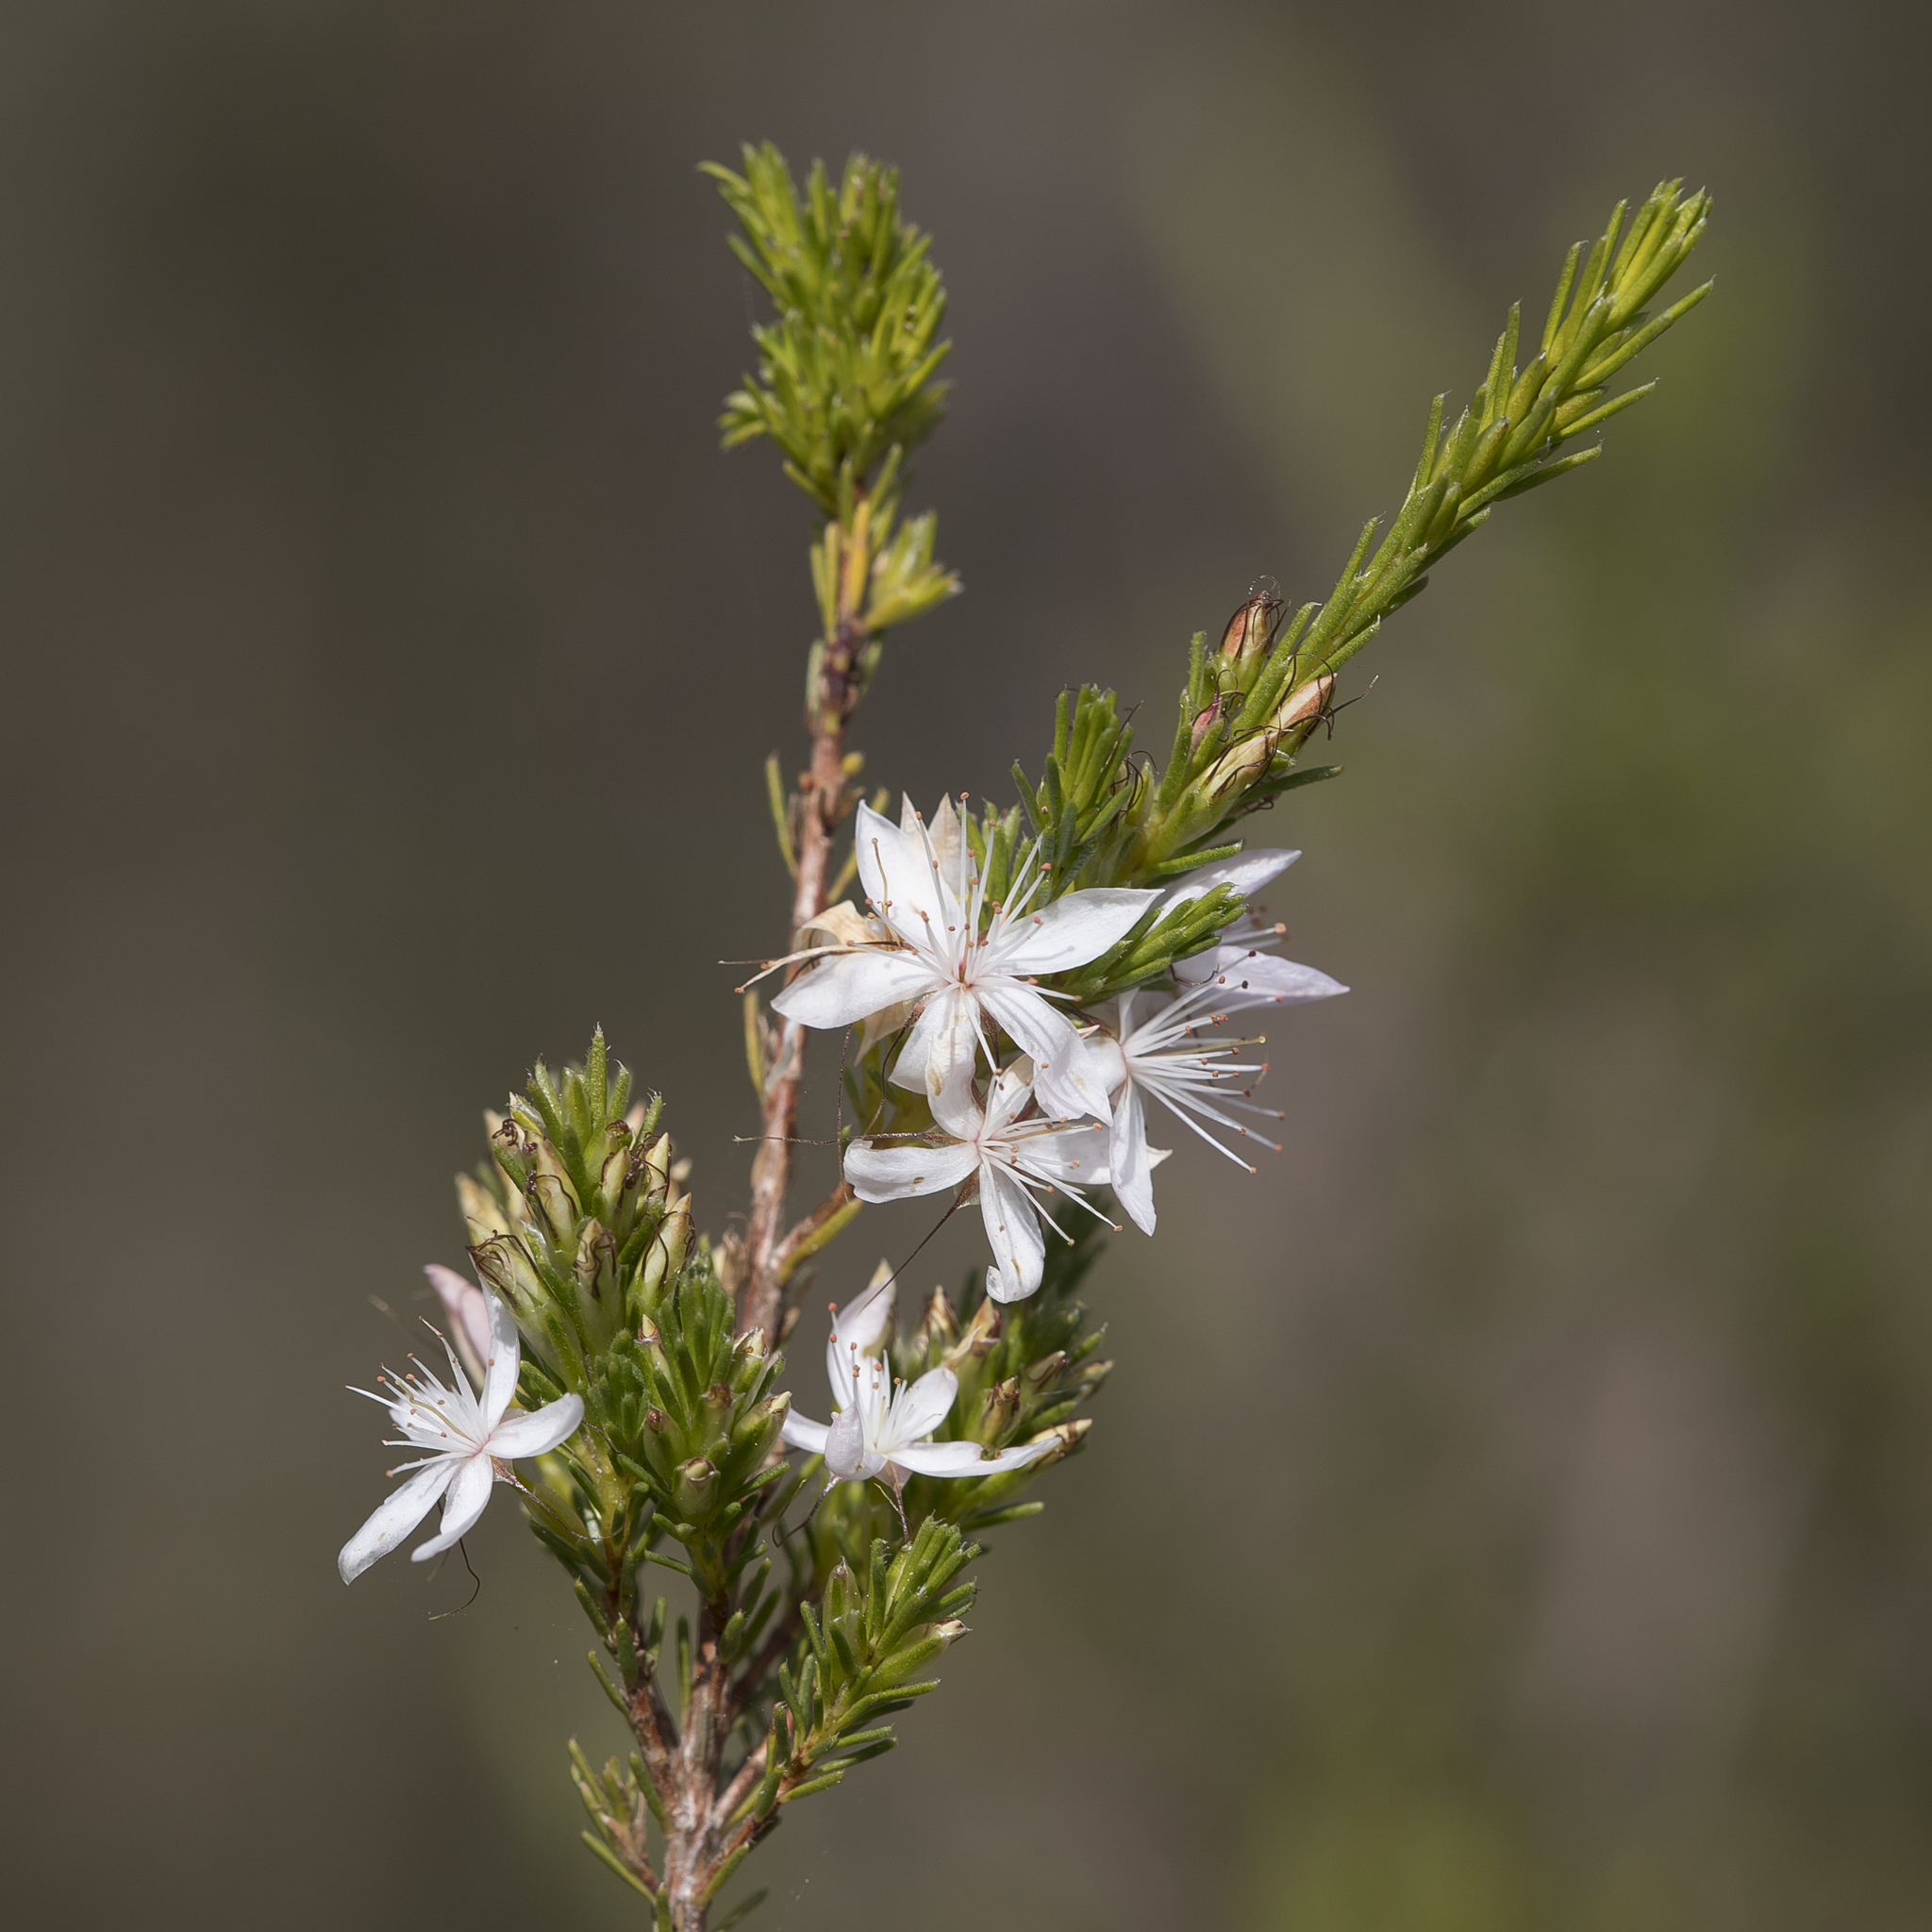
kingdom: Plantae
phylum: Tracheophyta
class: Magnoliopsida
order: Myrtales
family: Myrtaceae
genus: Calytrix
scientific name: Calytrix tetragona
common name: Common fringe myrtle
